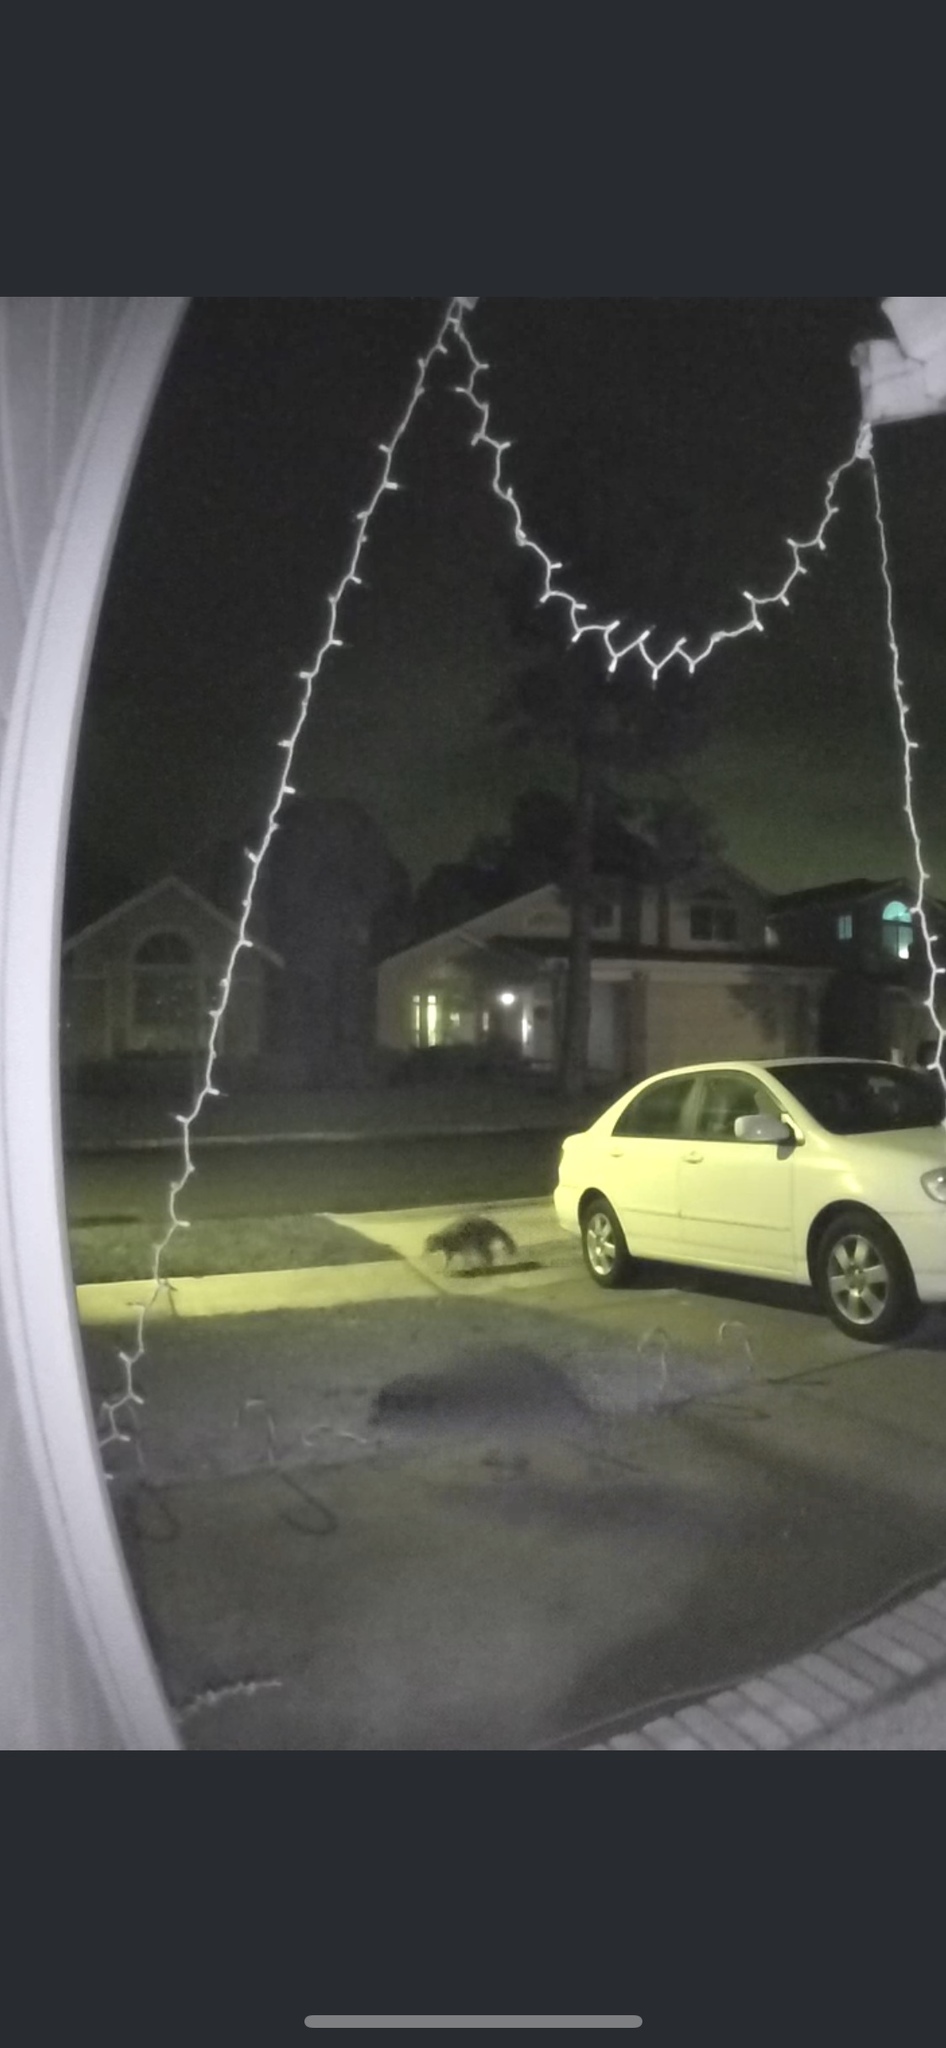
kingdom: Animalia
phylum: Chordata
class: Mammalia
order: Carnivora
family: Procyonidae
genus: Procyon
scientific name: Procyon lotor
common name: Raccoon
